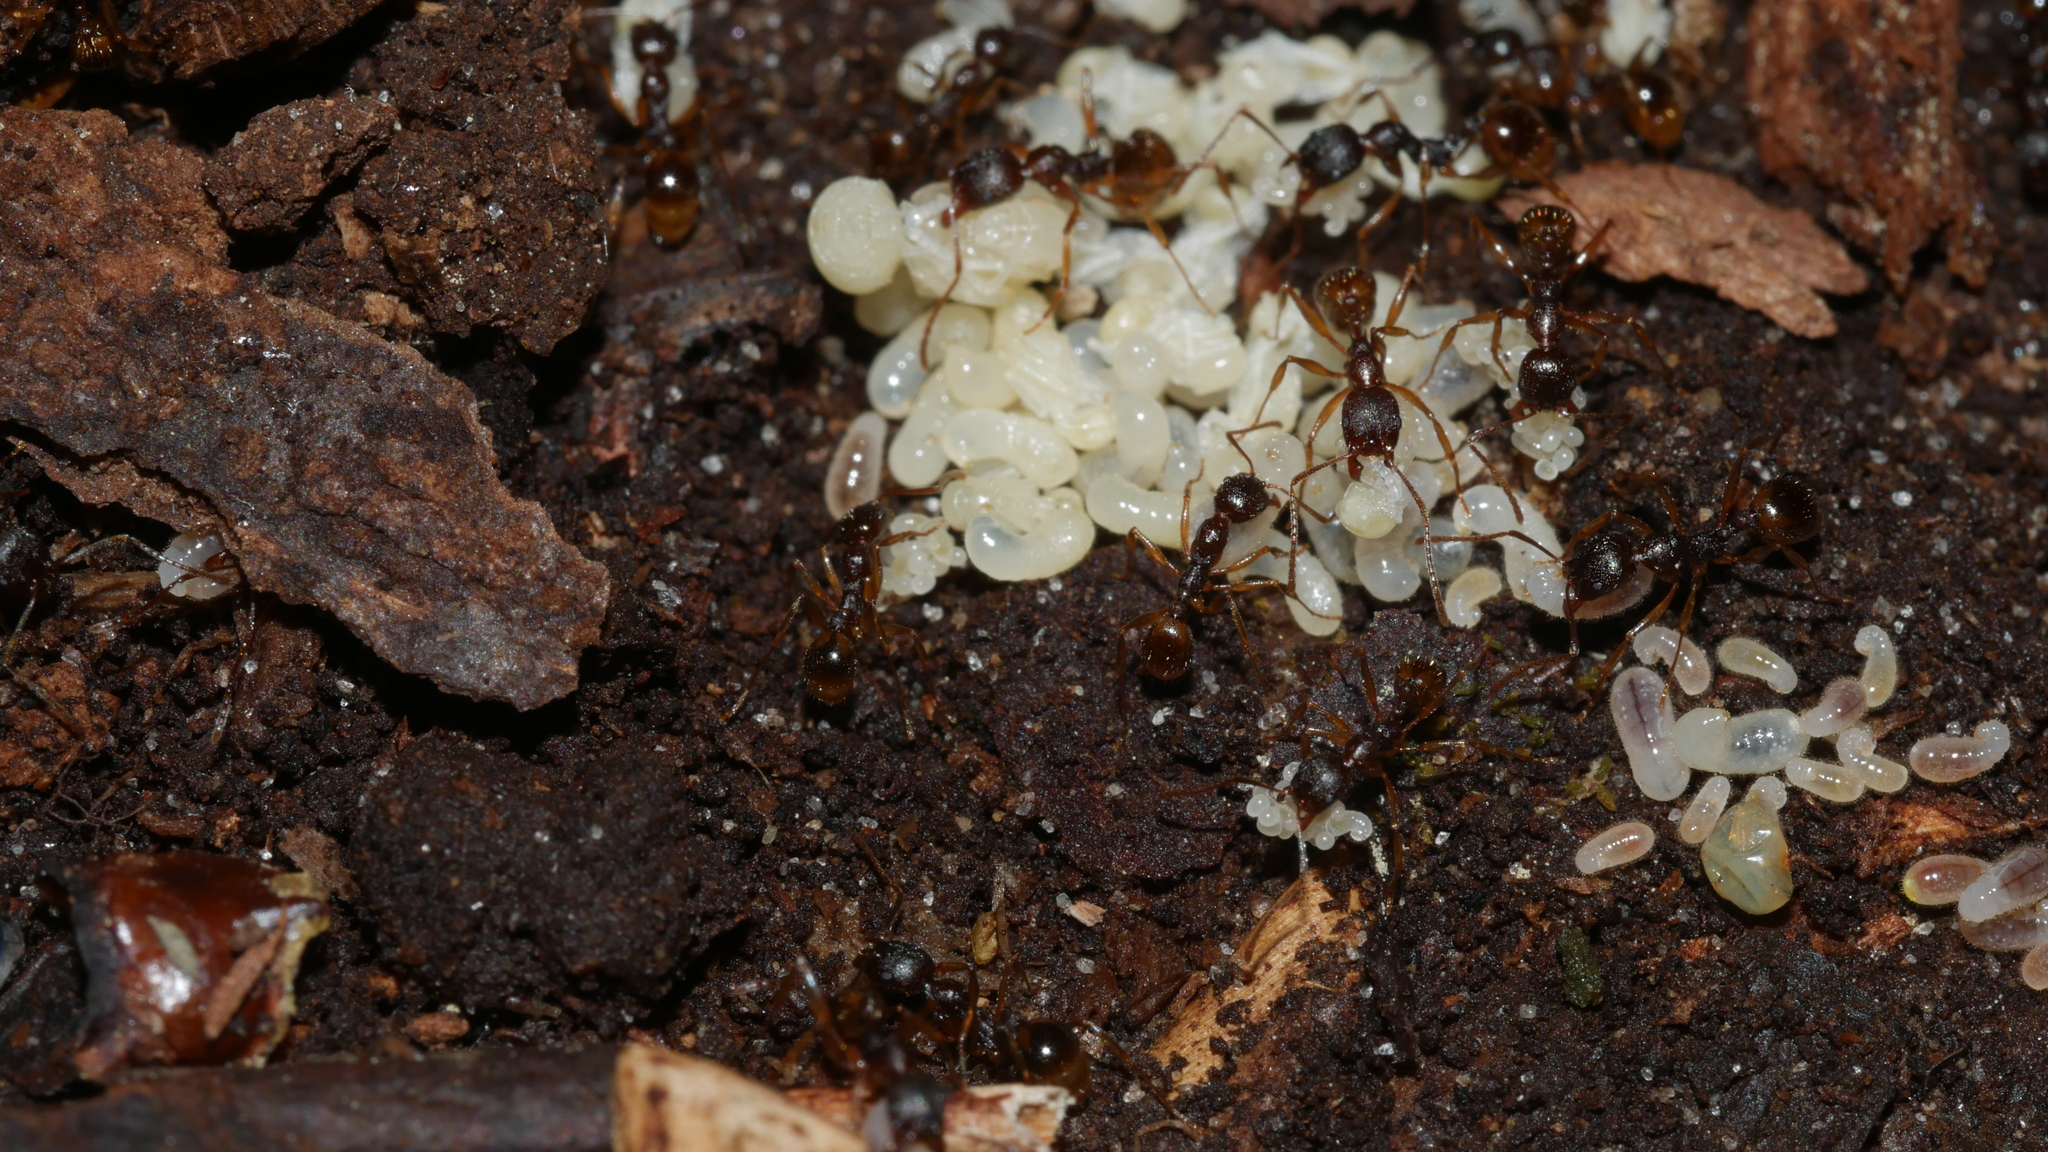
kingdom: Animalia
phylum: Arthropoda
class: Insecta
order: Hymenoptera
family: Formicidae
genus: Aphaenogaster
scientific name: Aphaenogaster rudis
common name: Winnow ant
